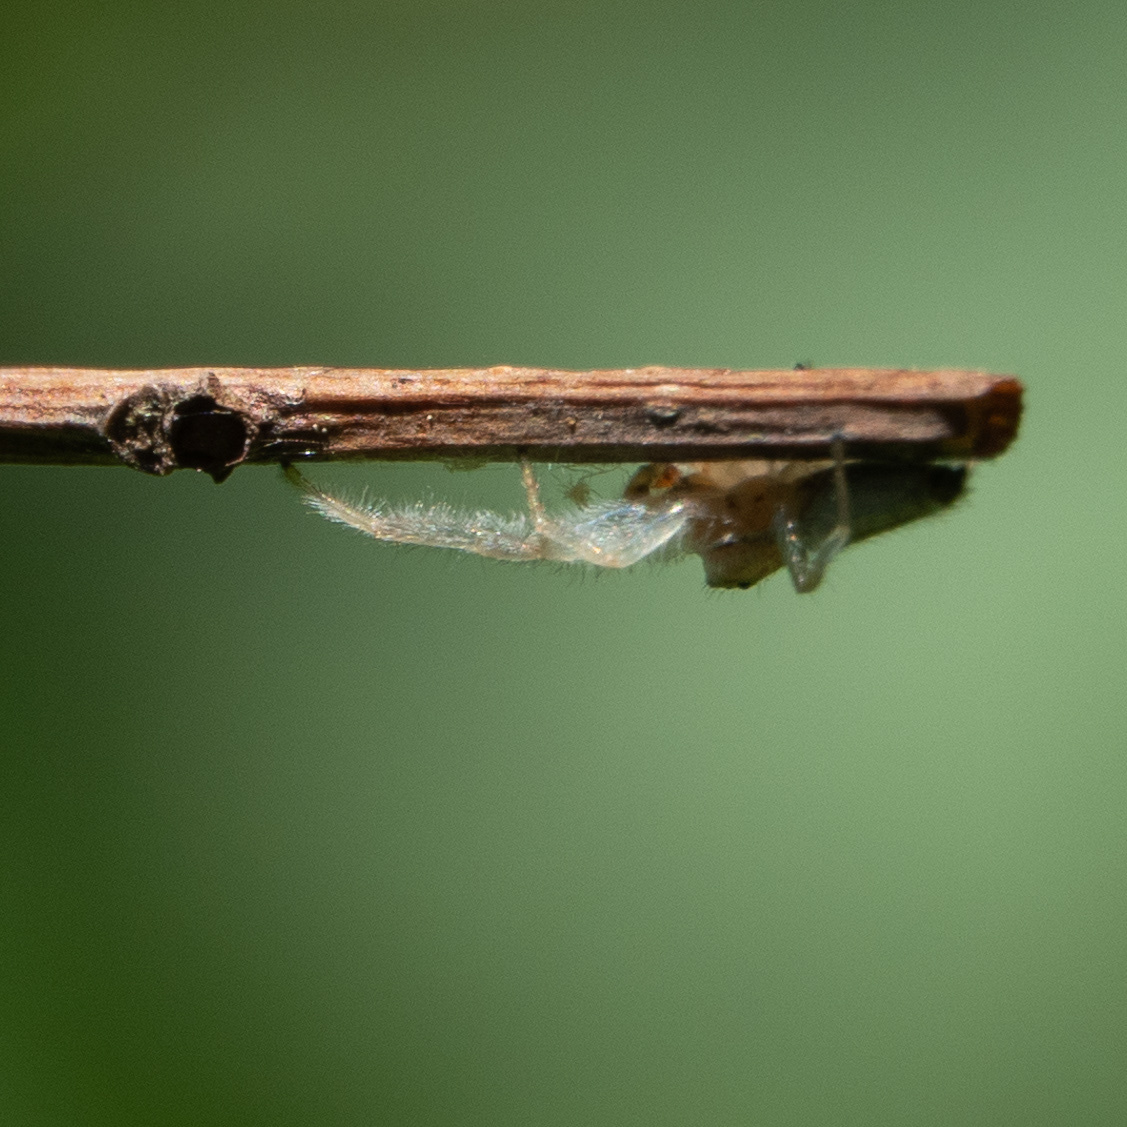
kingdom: Animalia
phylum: Arthropoda
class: Arachnida
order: Araneae
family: Salticidae
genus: Hentzia
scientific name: Hentzia mitrata
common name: White-jawed jumping spider
